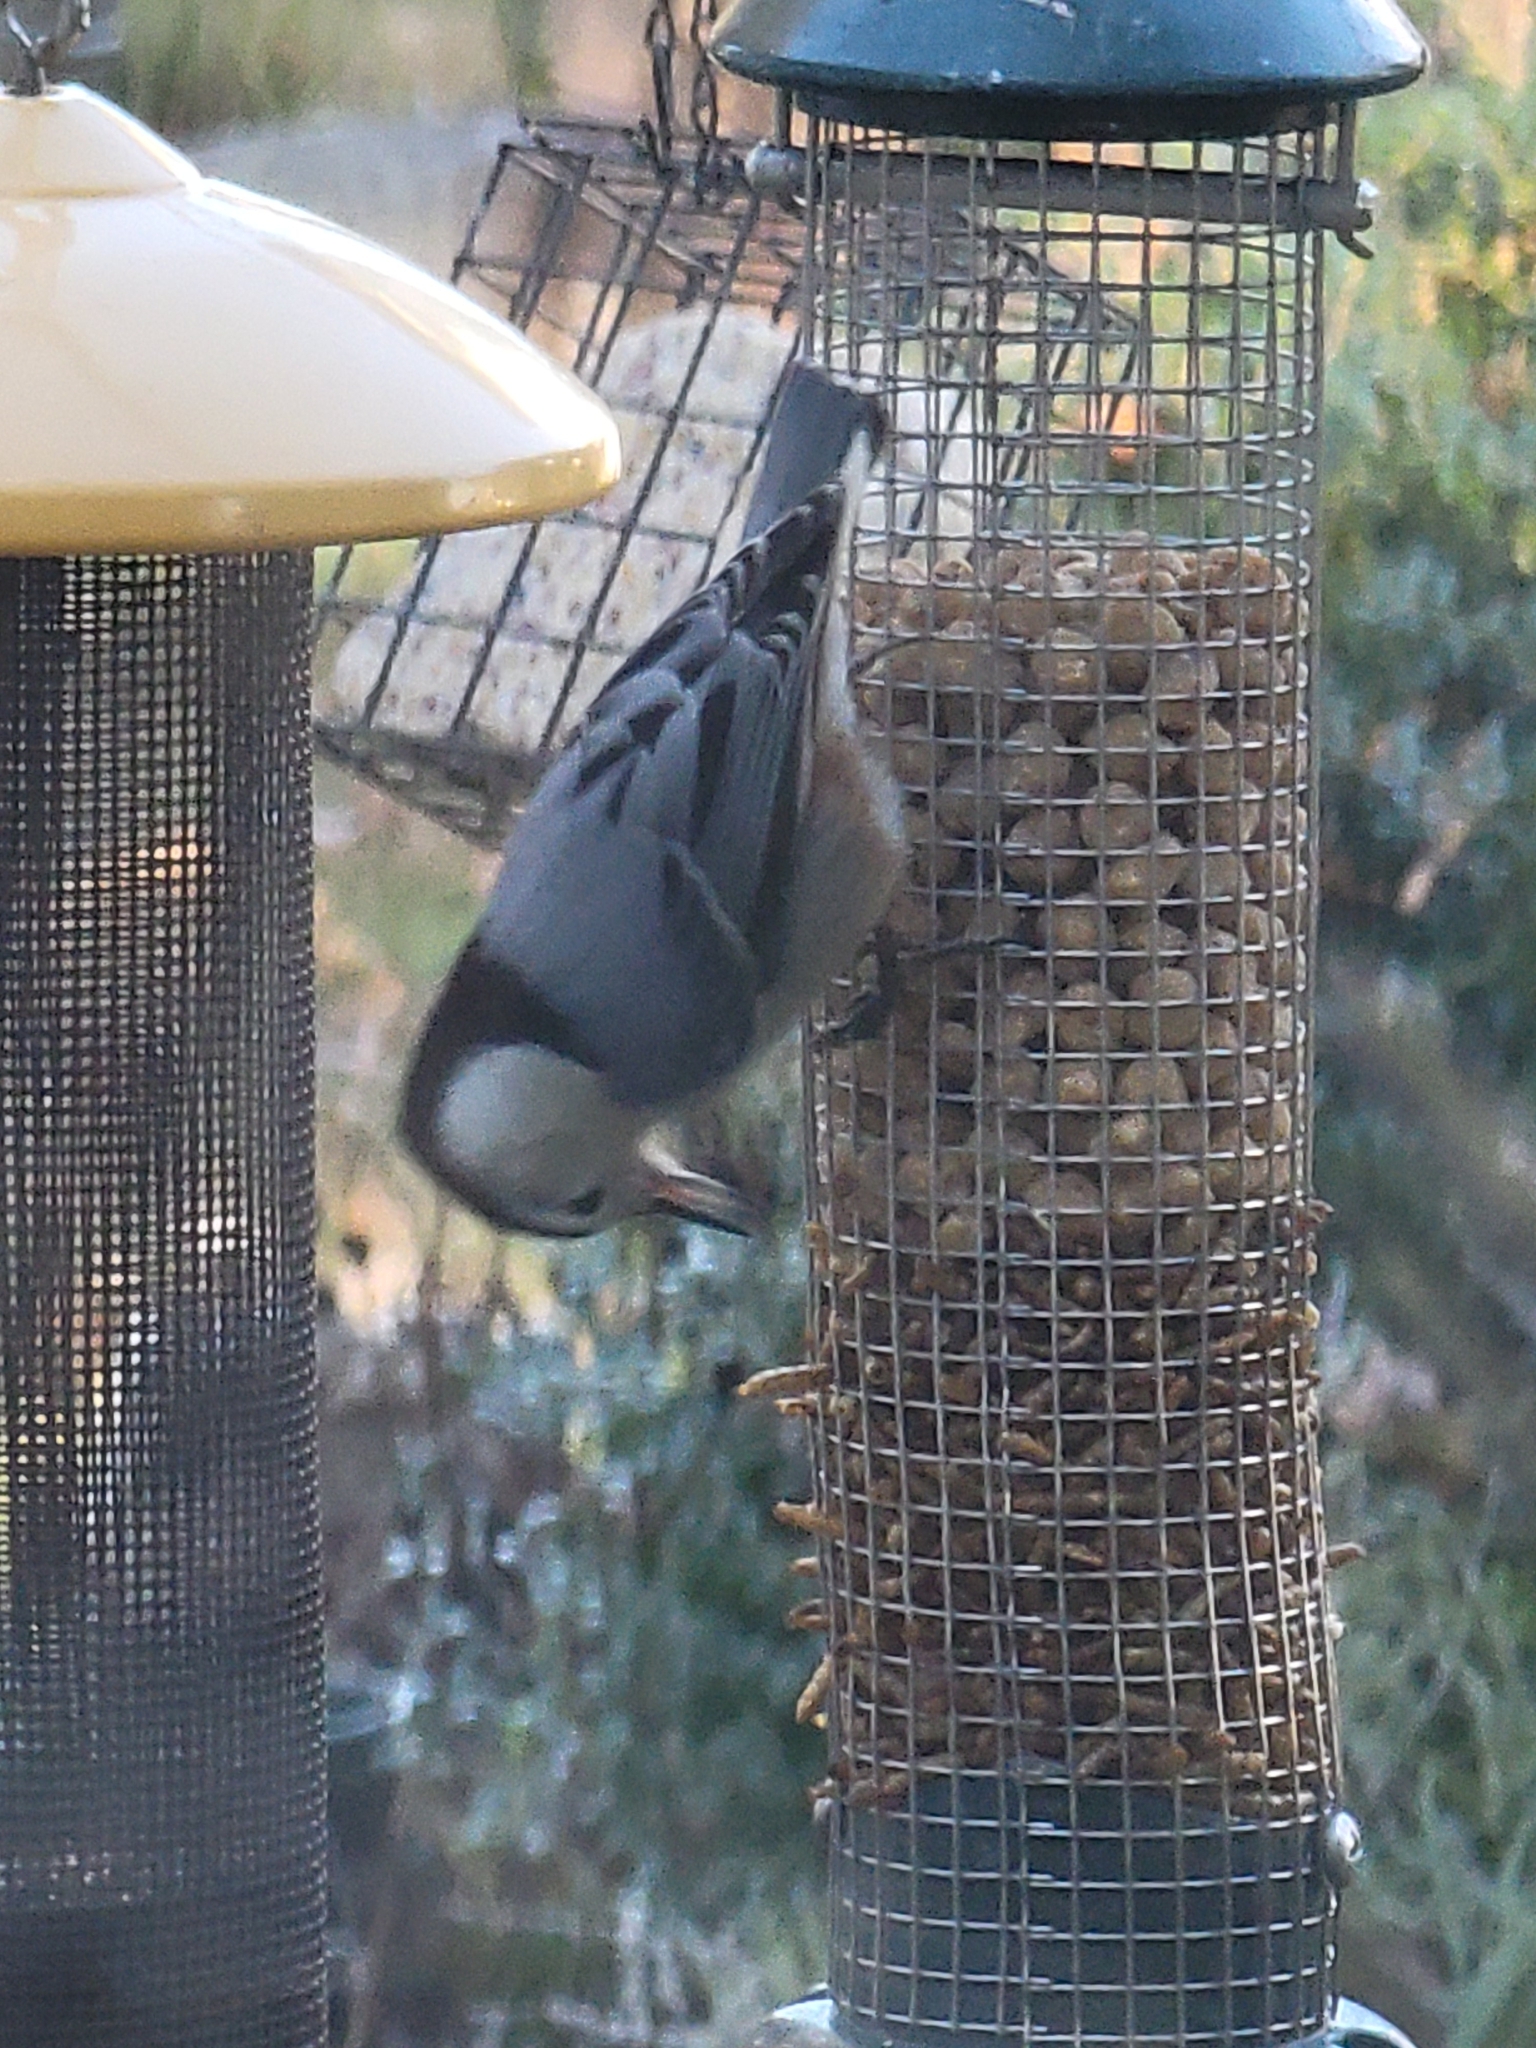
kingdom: Animalia
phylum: Chordata
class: Aves
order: Passeriformes
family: Sittidae
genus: Sitta
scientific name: Sitta carolinensis
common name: White-breasted nuthatch
